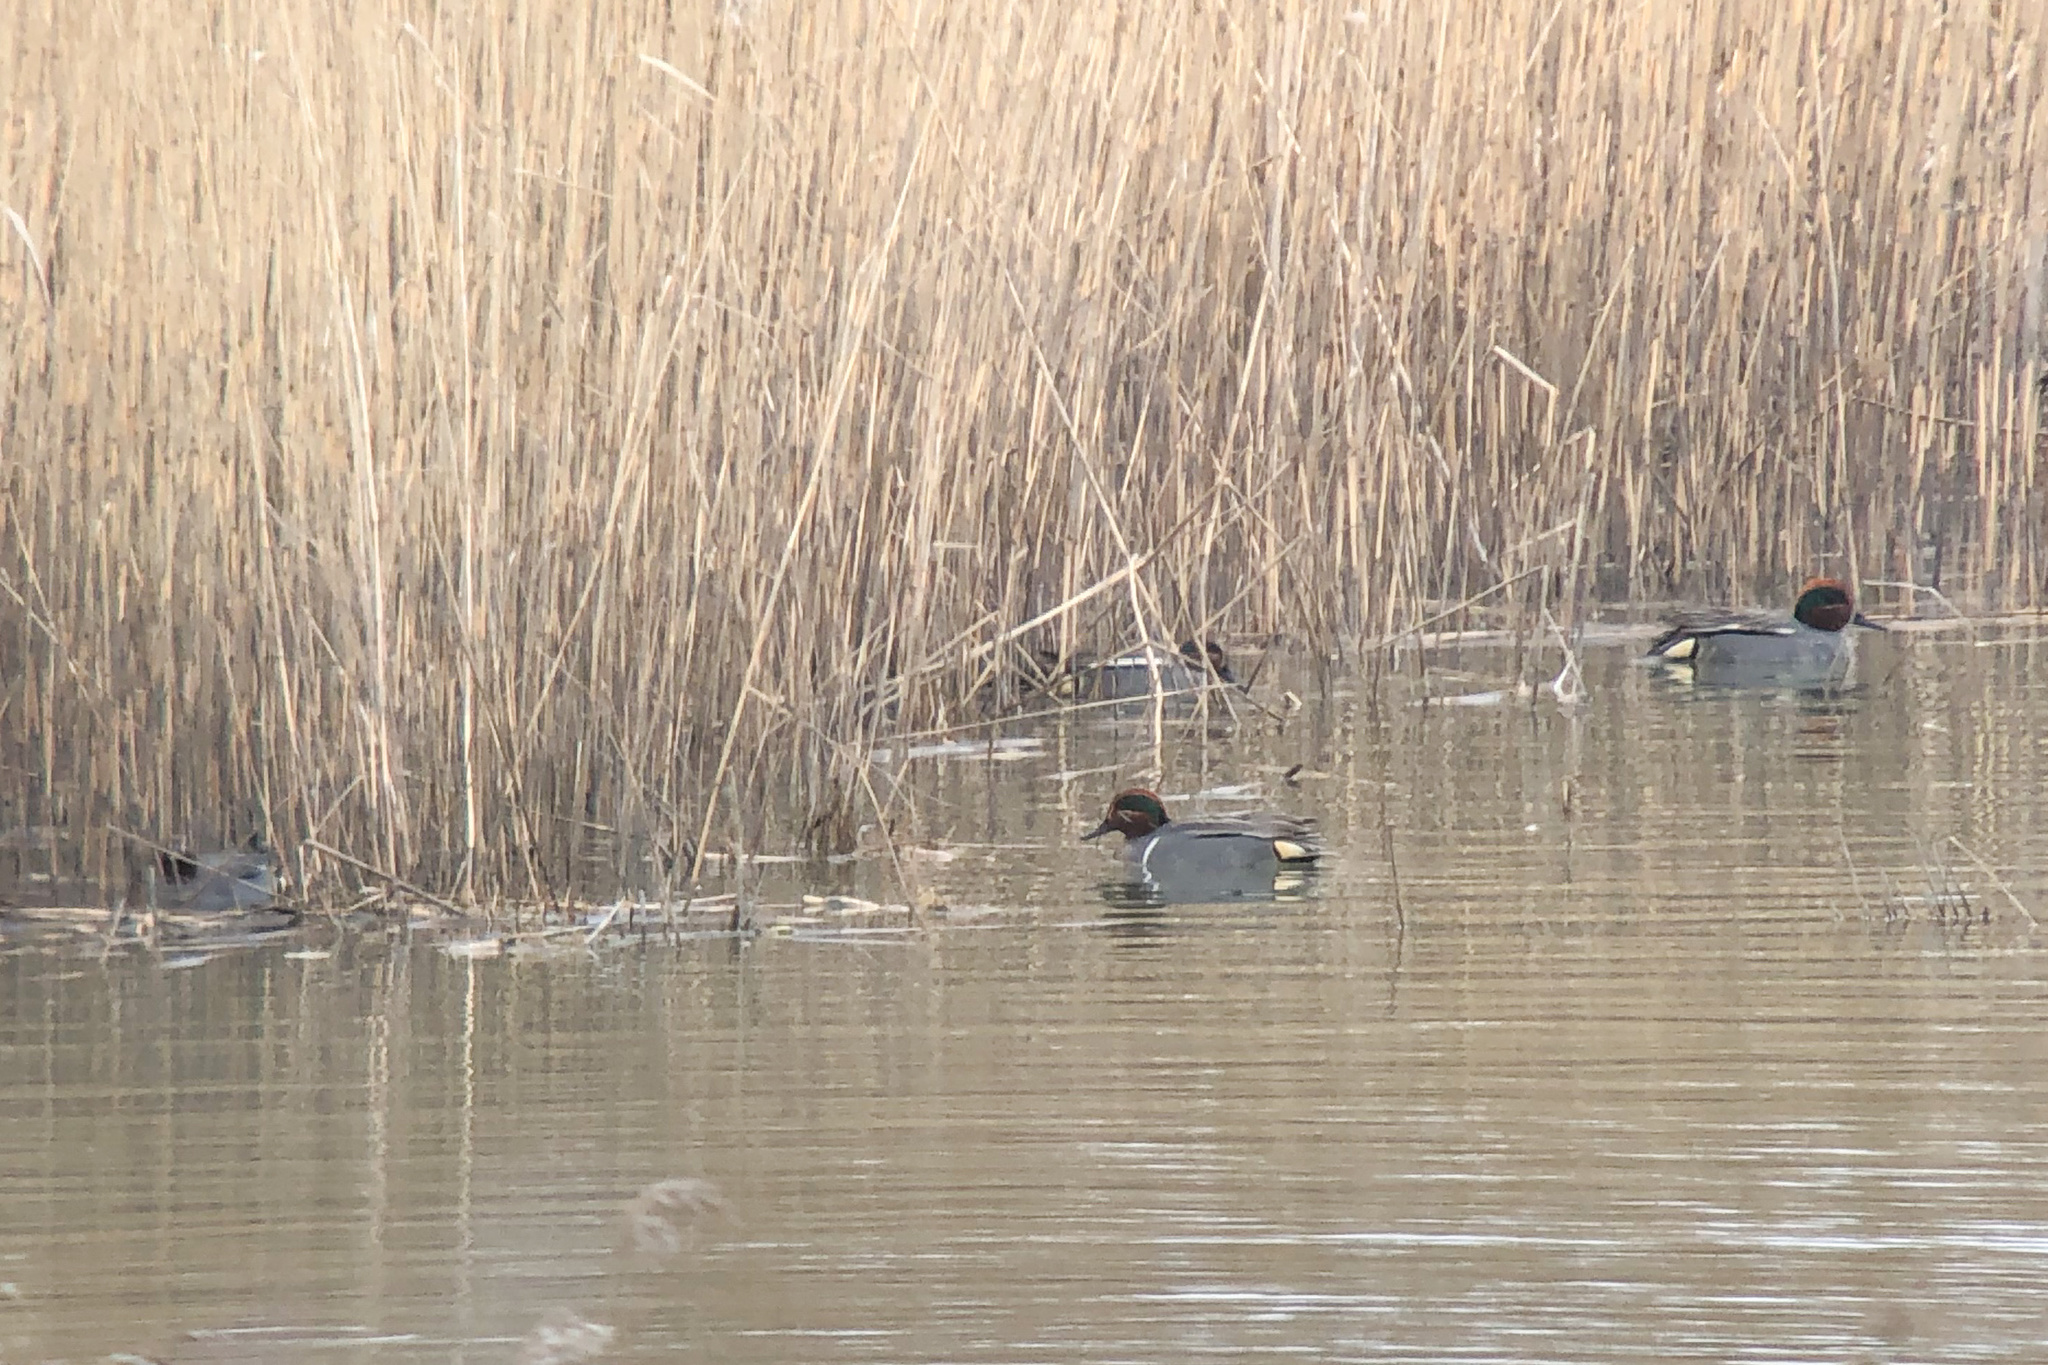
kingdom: Animalia
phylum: Chordata
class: Aves
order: Anseriformes
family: Anatidae
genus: Anas
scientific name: Anas carolinensis
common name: Green-winged teal
